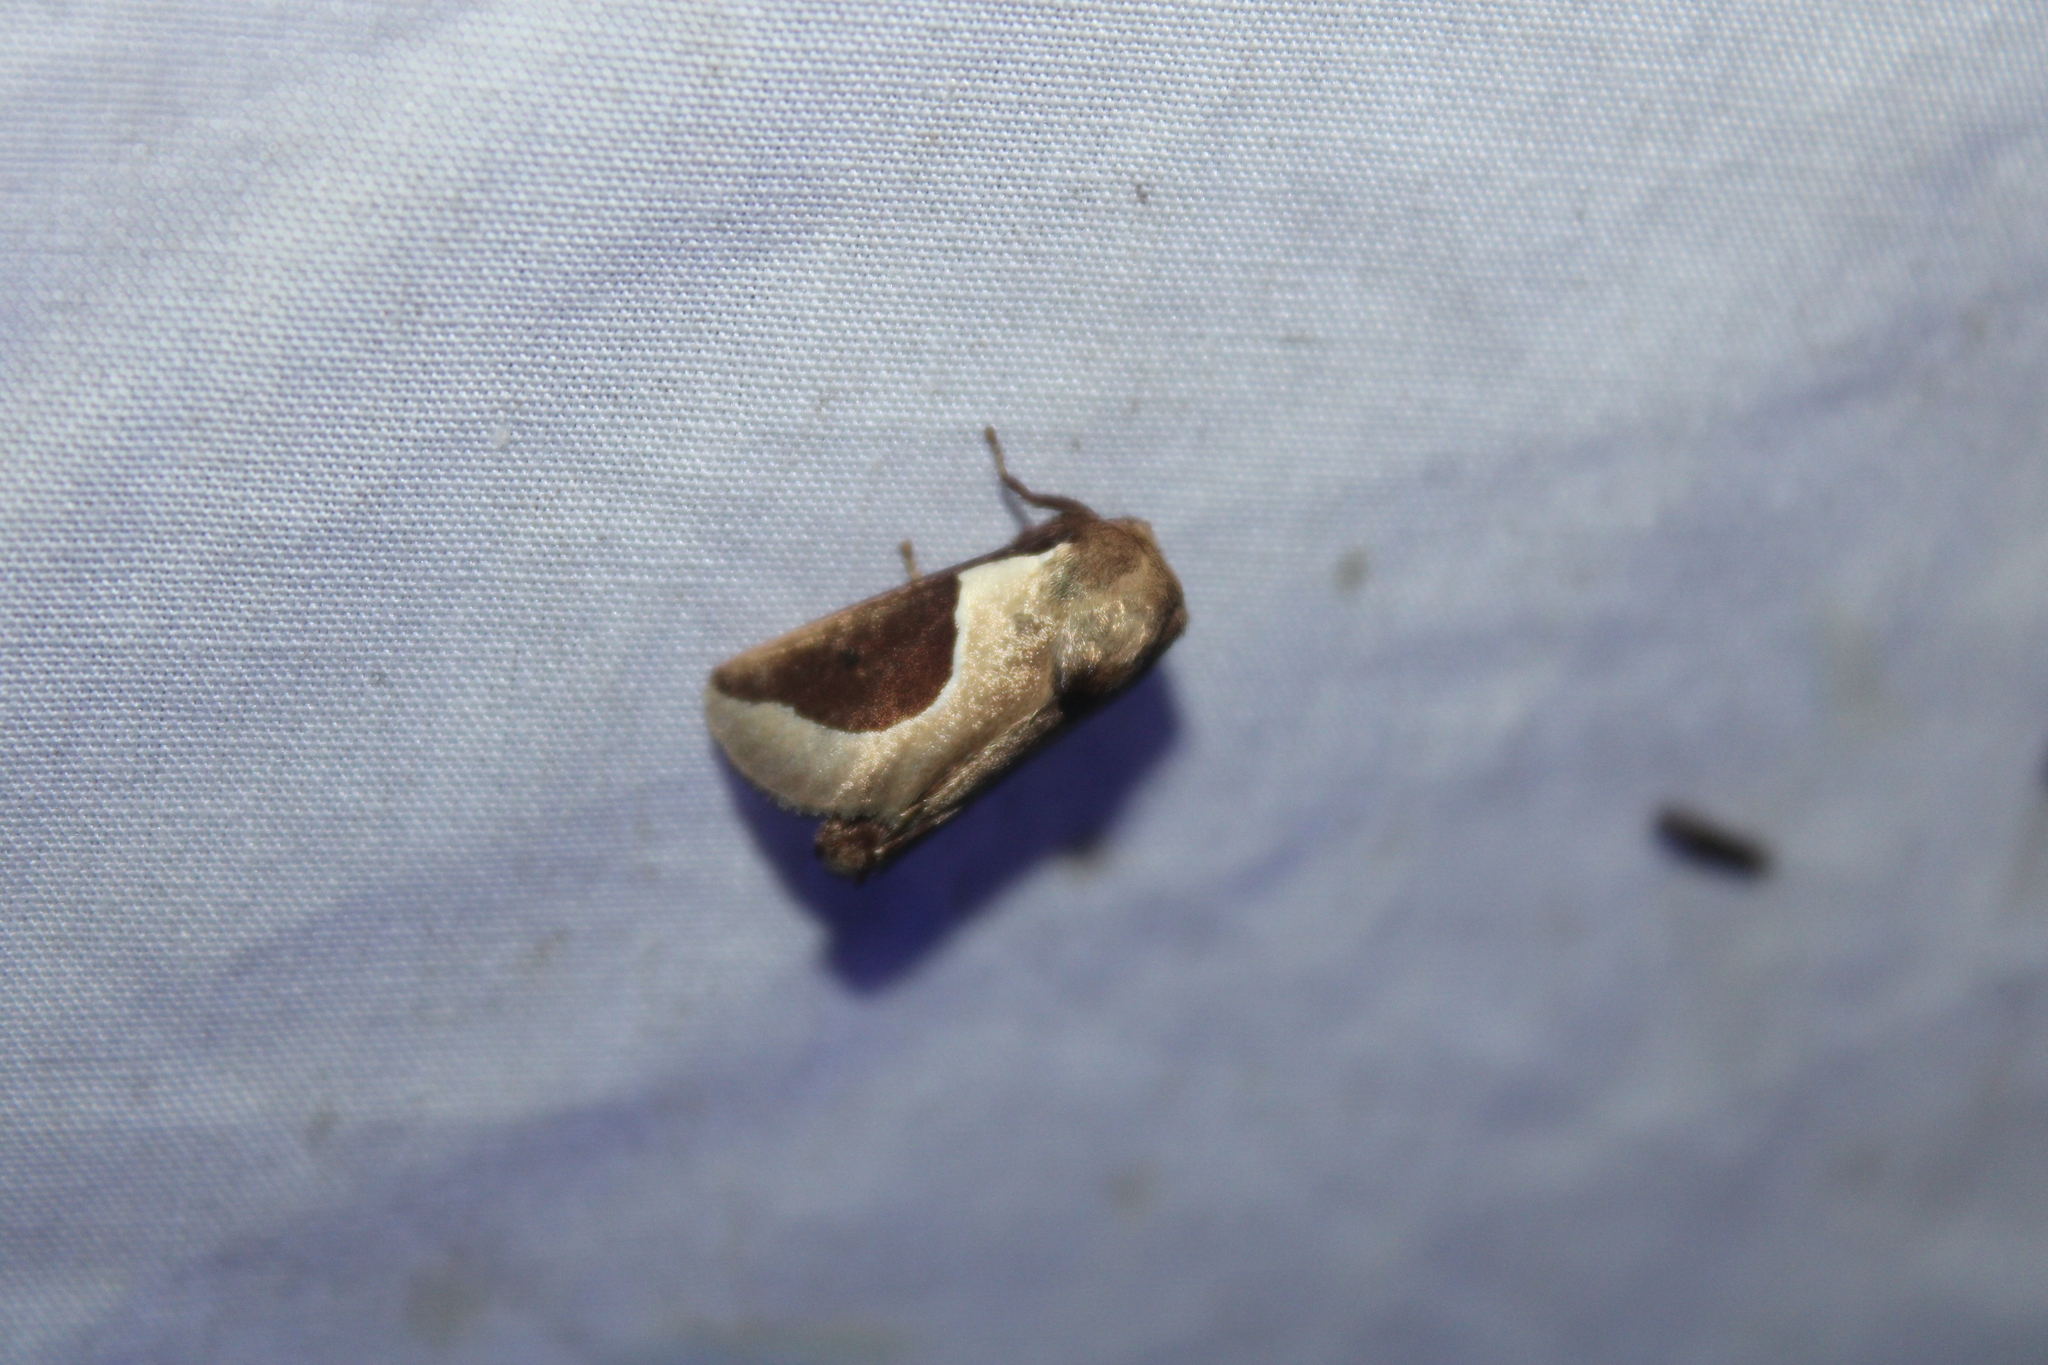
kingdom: Animalia
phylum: Arthropoda
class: Insecta
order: Lepidoptera
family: Limacodidae
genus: Prolimacodes
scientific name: Prolimacodes badia
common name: Skiff moth
